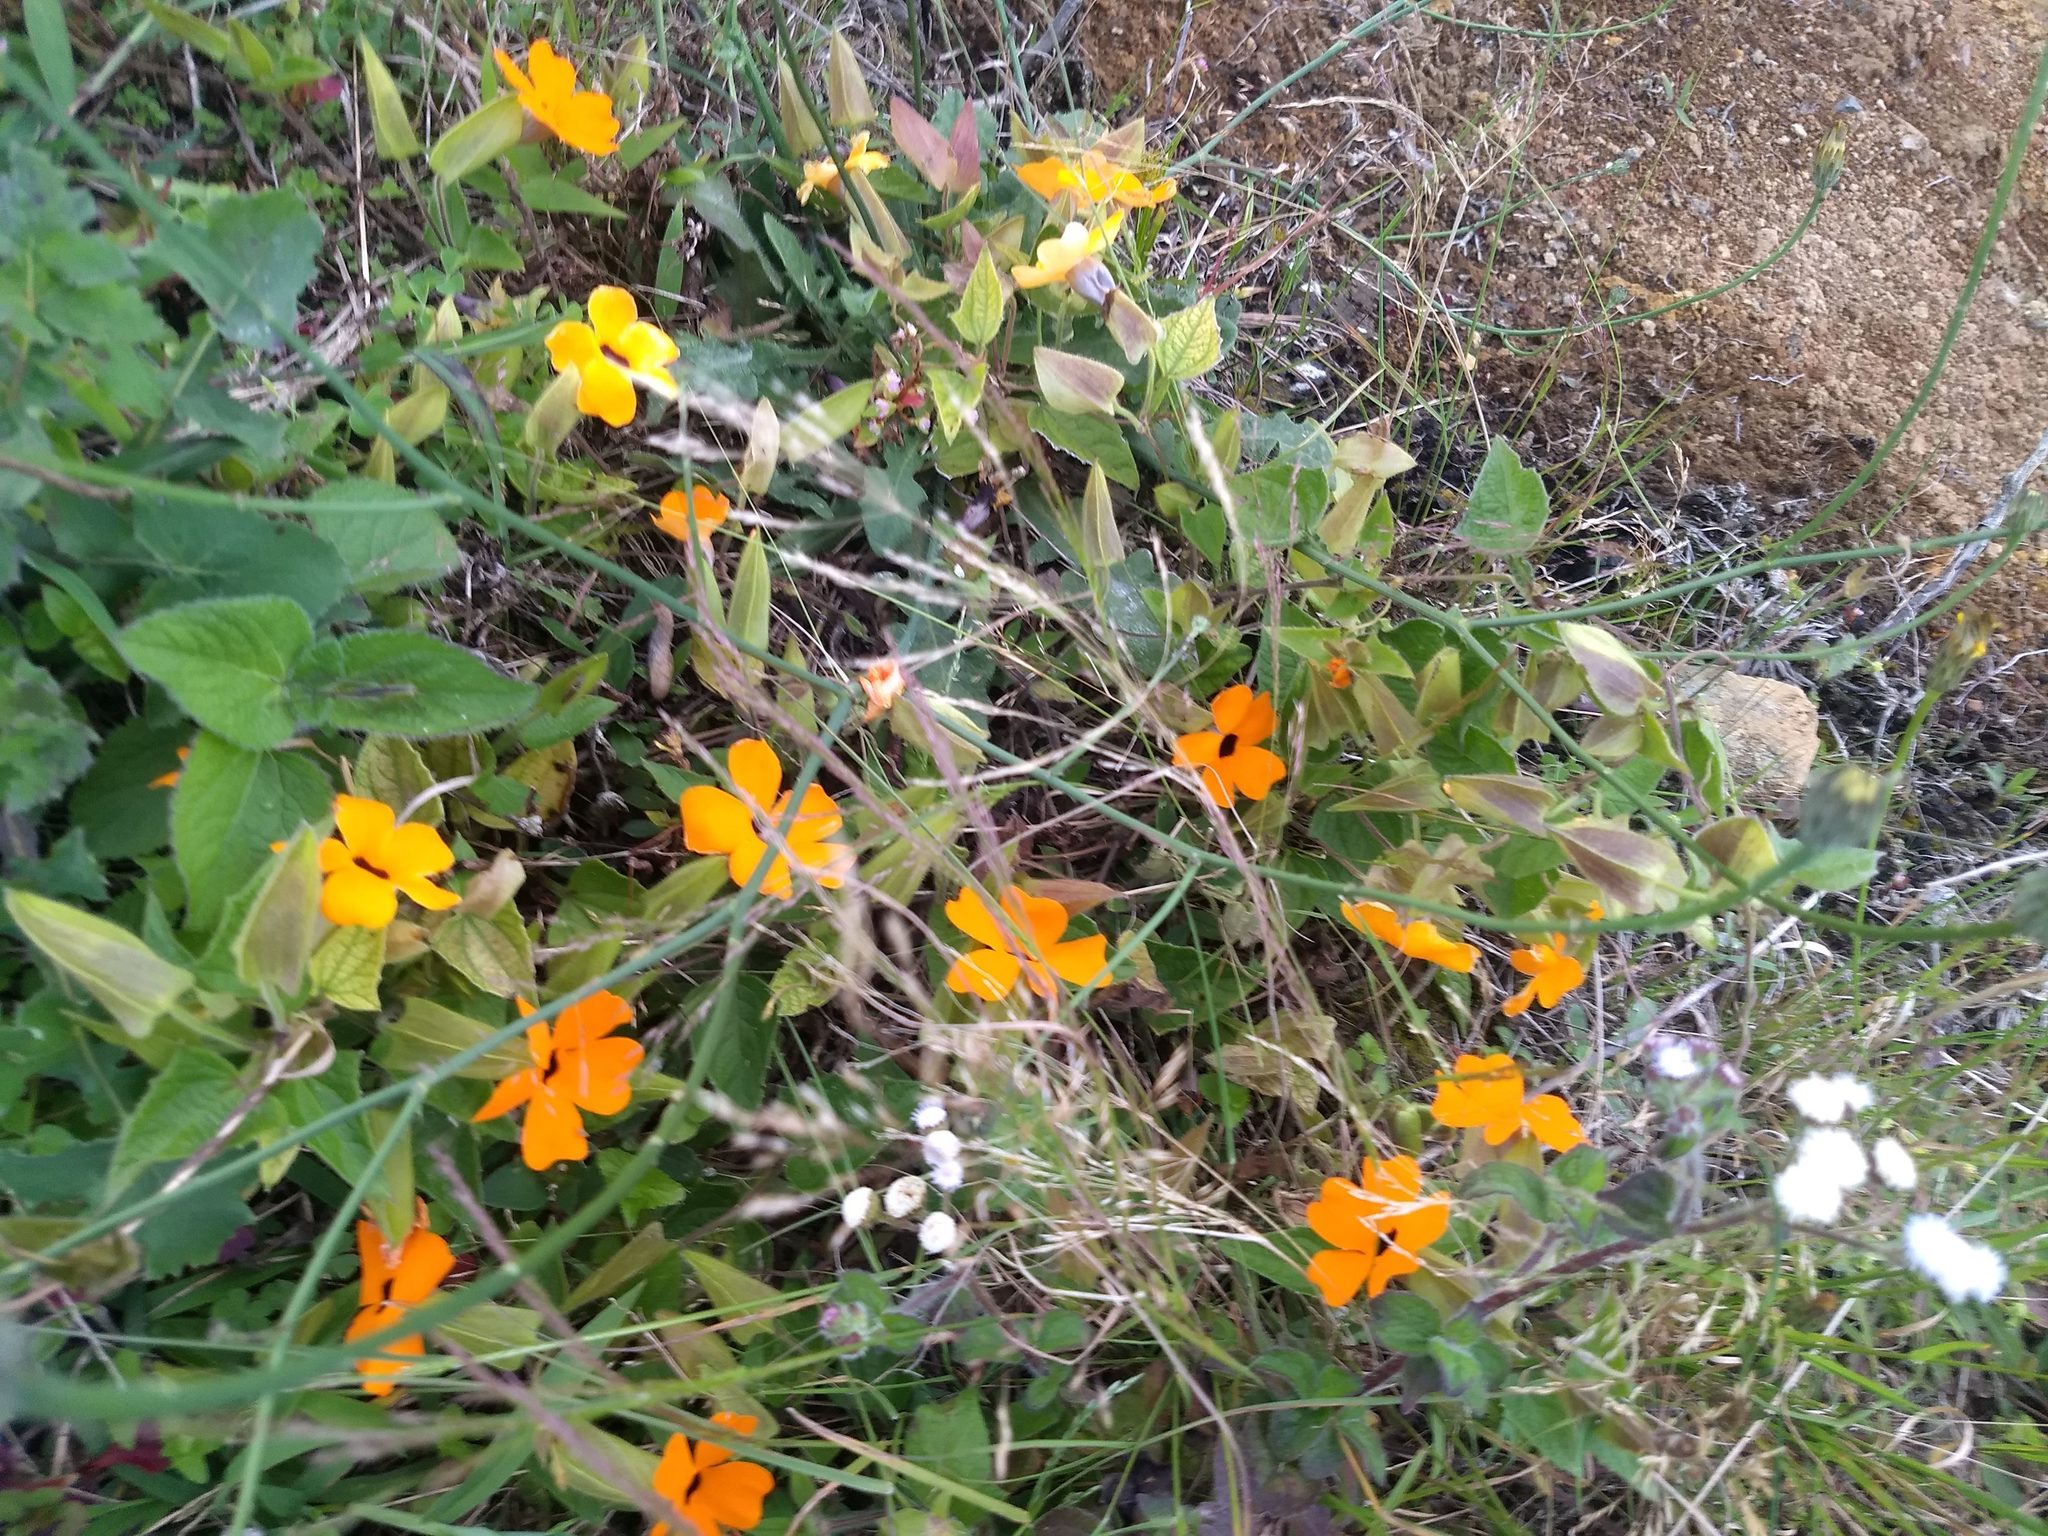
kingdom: Plantae
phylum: Tracheophyta
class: Magnoliopsida
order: Lamiales
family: Acanthaceae
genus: Thunbergia
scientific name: Thunbergia alata
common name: Blackeyed susan vine
